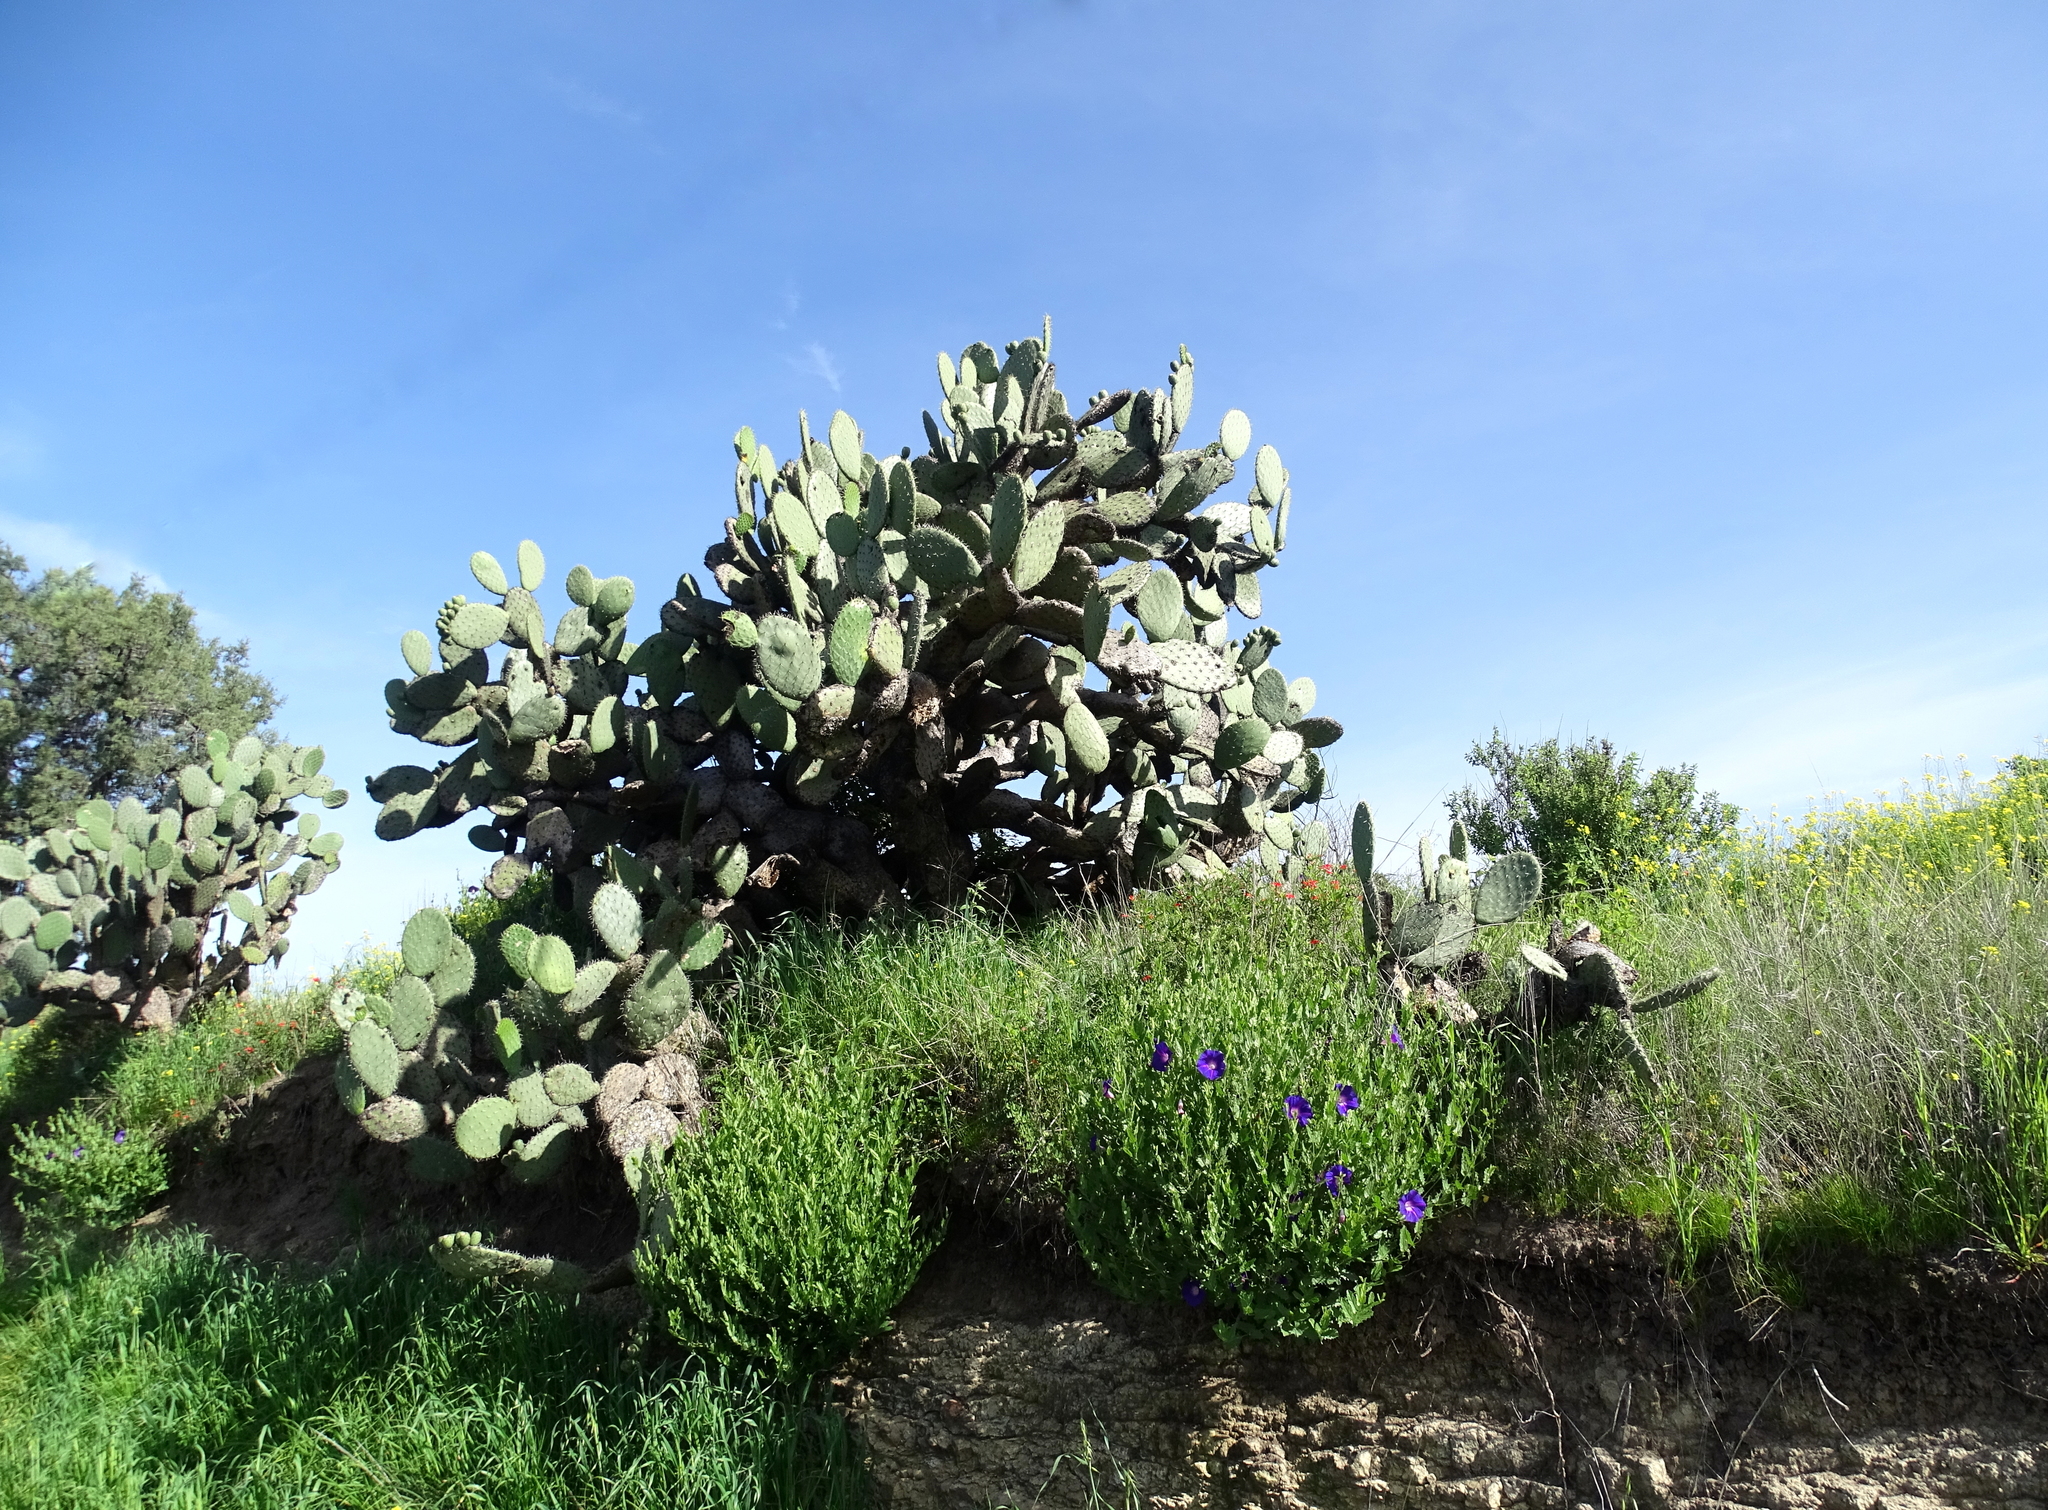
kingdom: Plantae
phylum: Tracheophyta
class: Magnoliopsida
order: Solanales
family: Convolvulaceae
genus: Ipomoea
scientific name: Ipomoea stans
